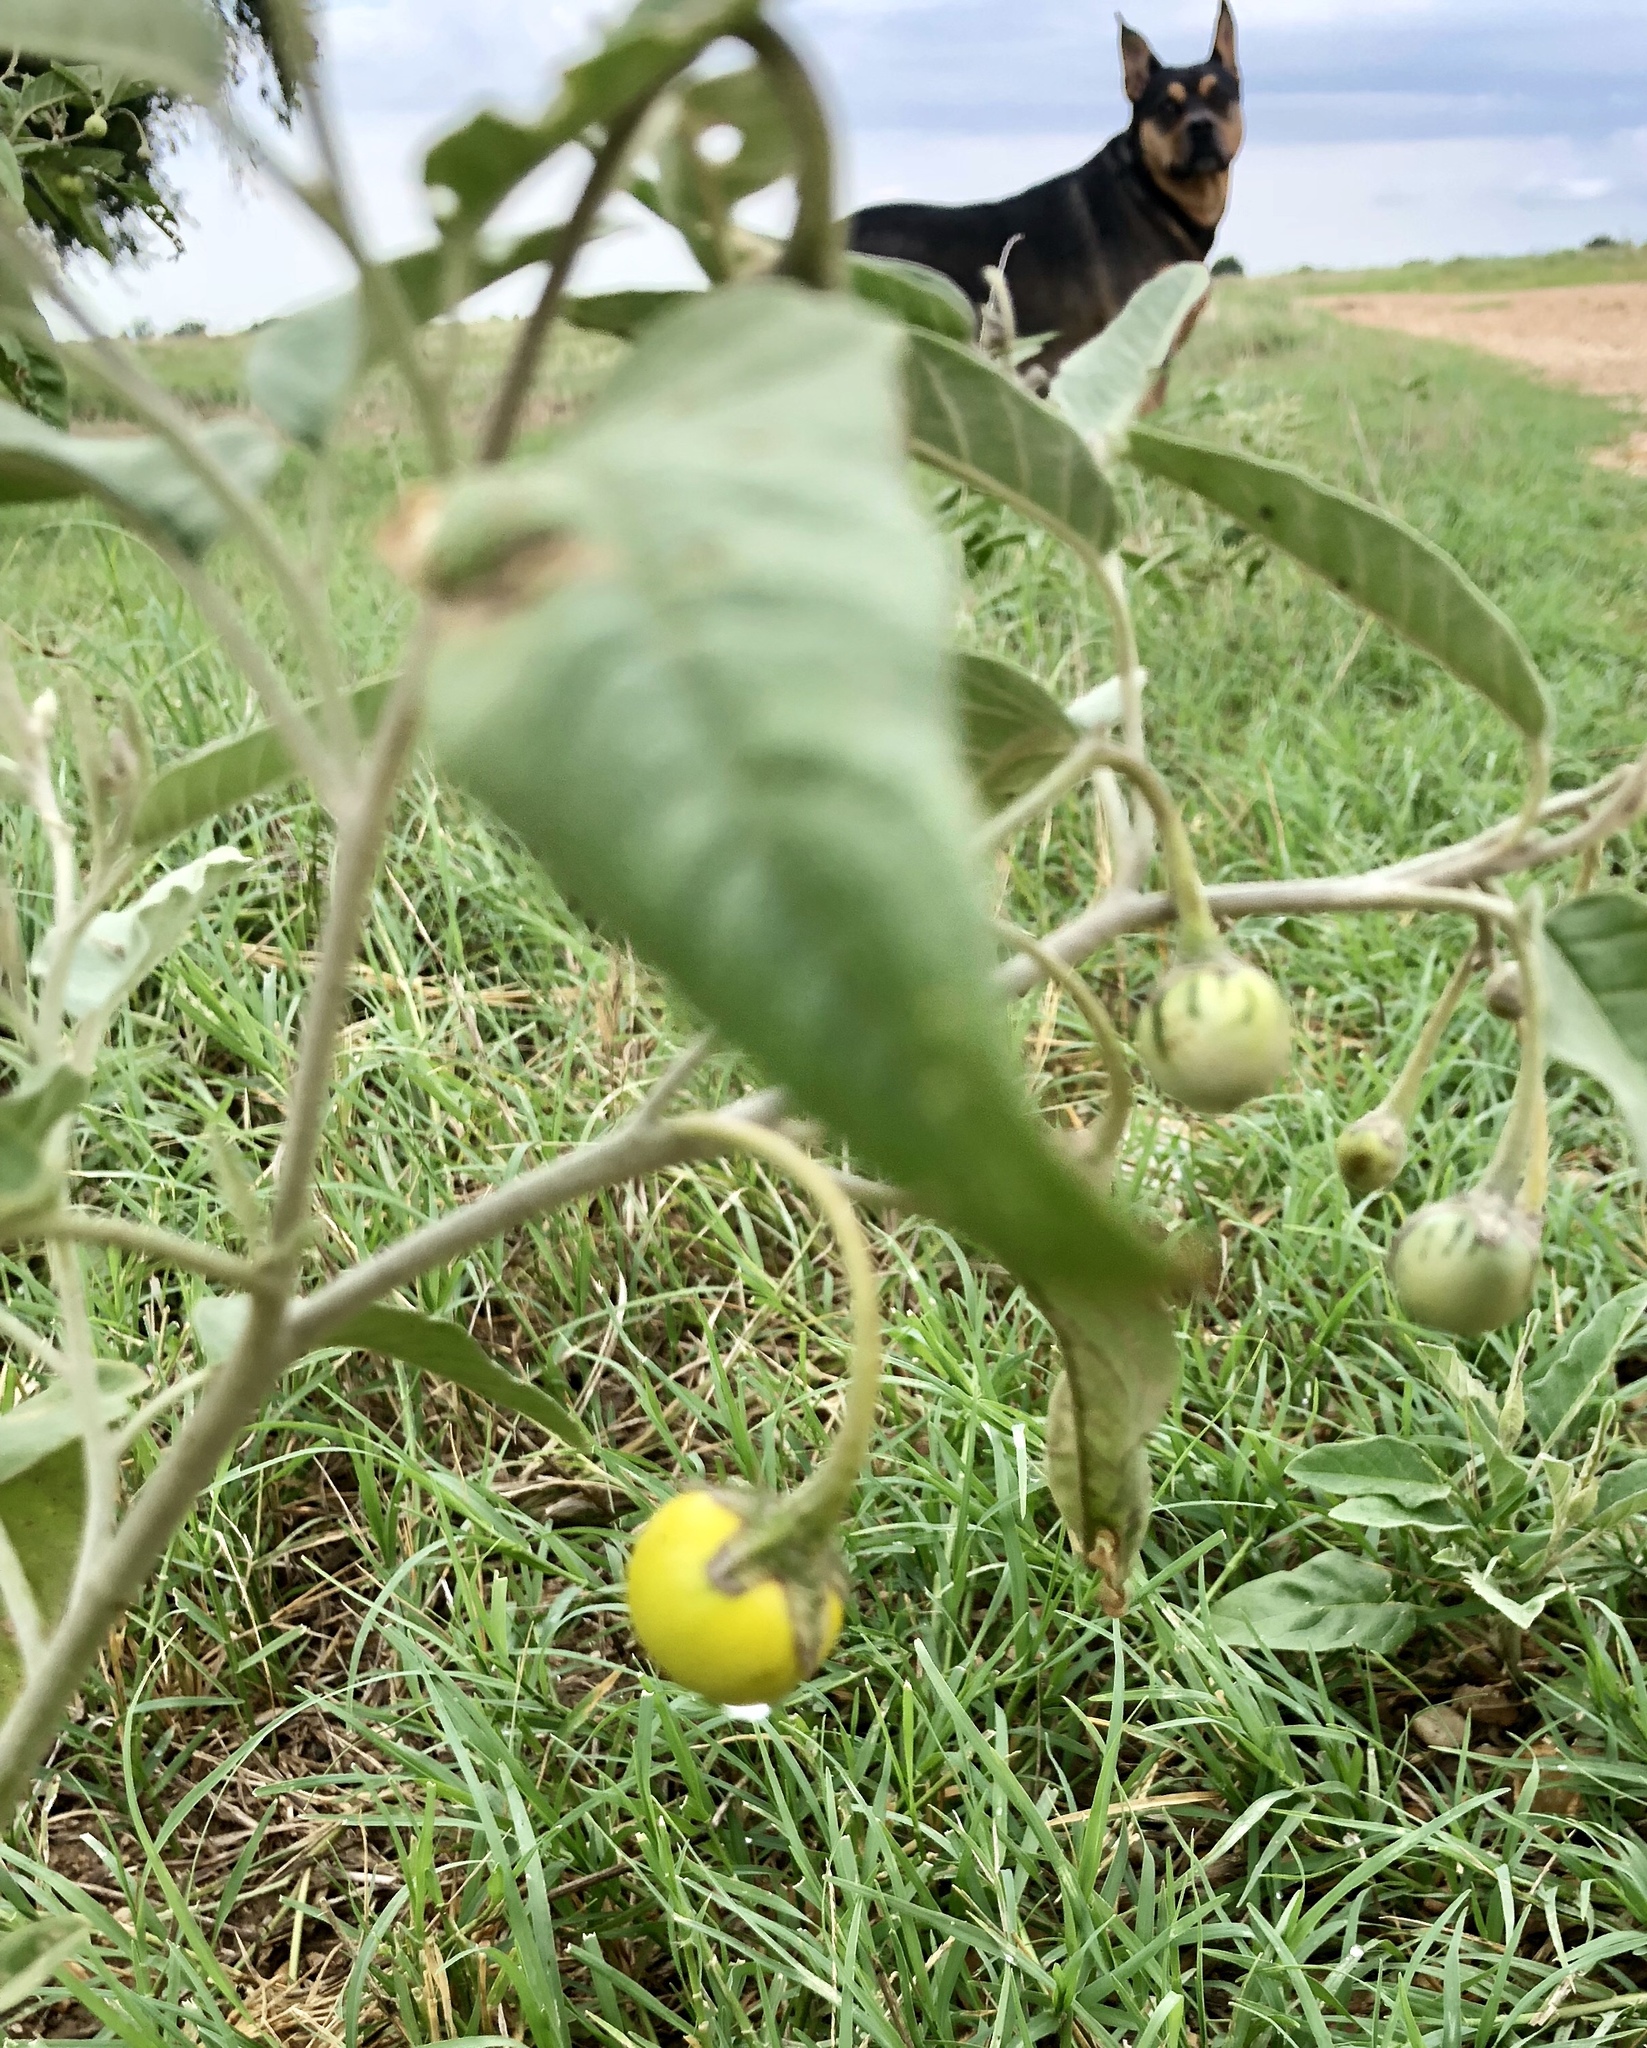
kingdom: Plantae
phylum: Tracheophyta
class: Magnoliopsida
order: Solanales
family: Solanaceae
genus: Solanum
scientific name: Solanum elaeagnifolium
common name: Silverleaf nightshade
